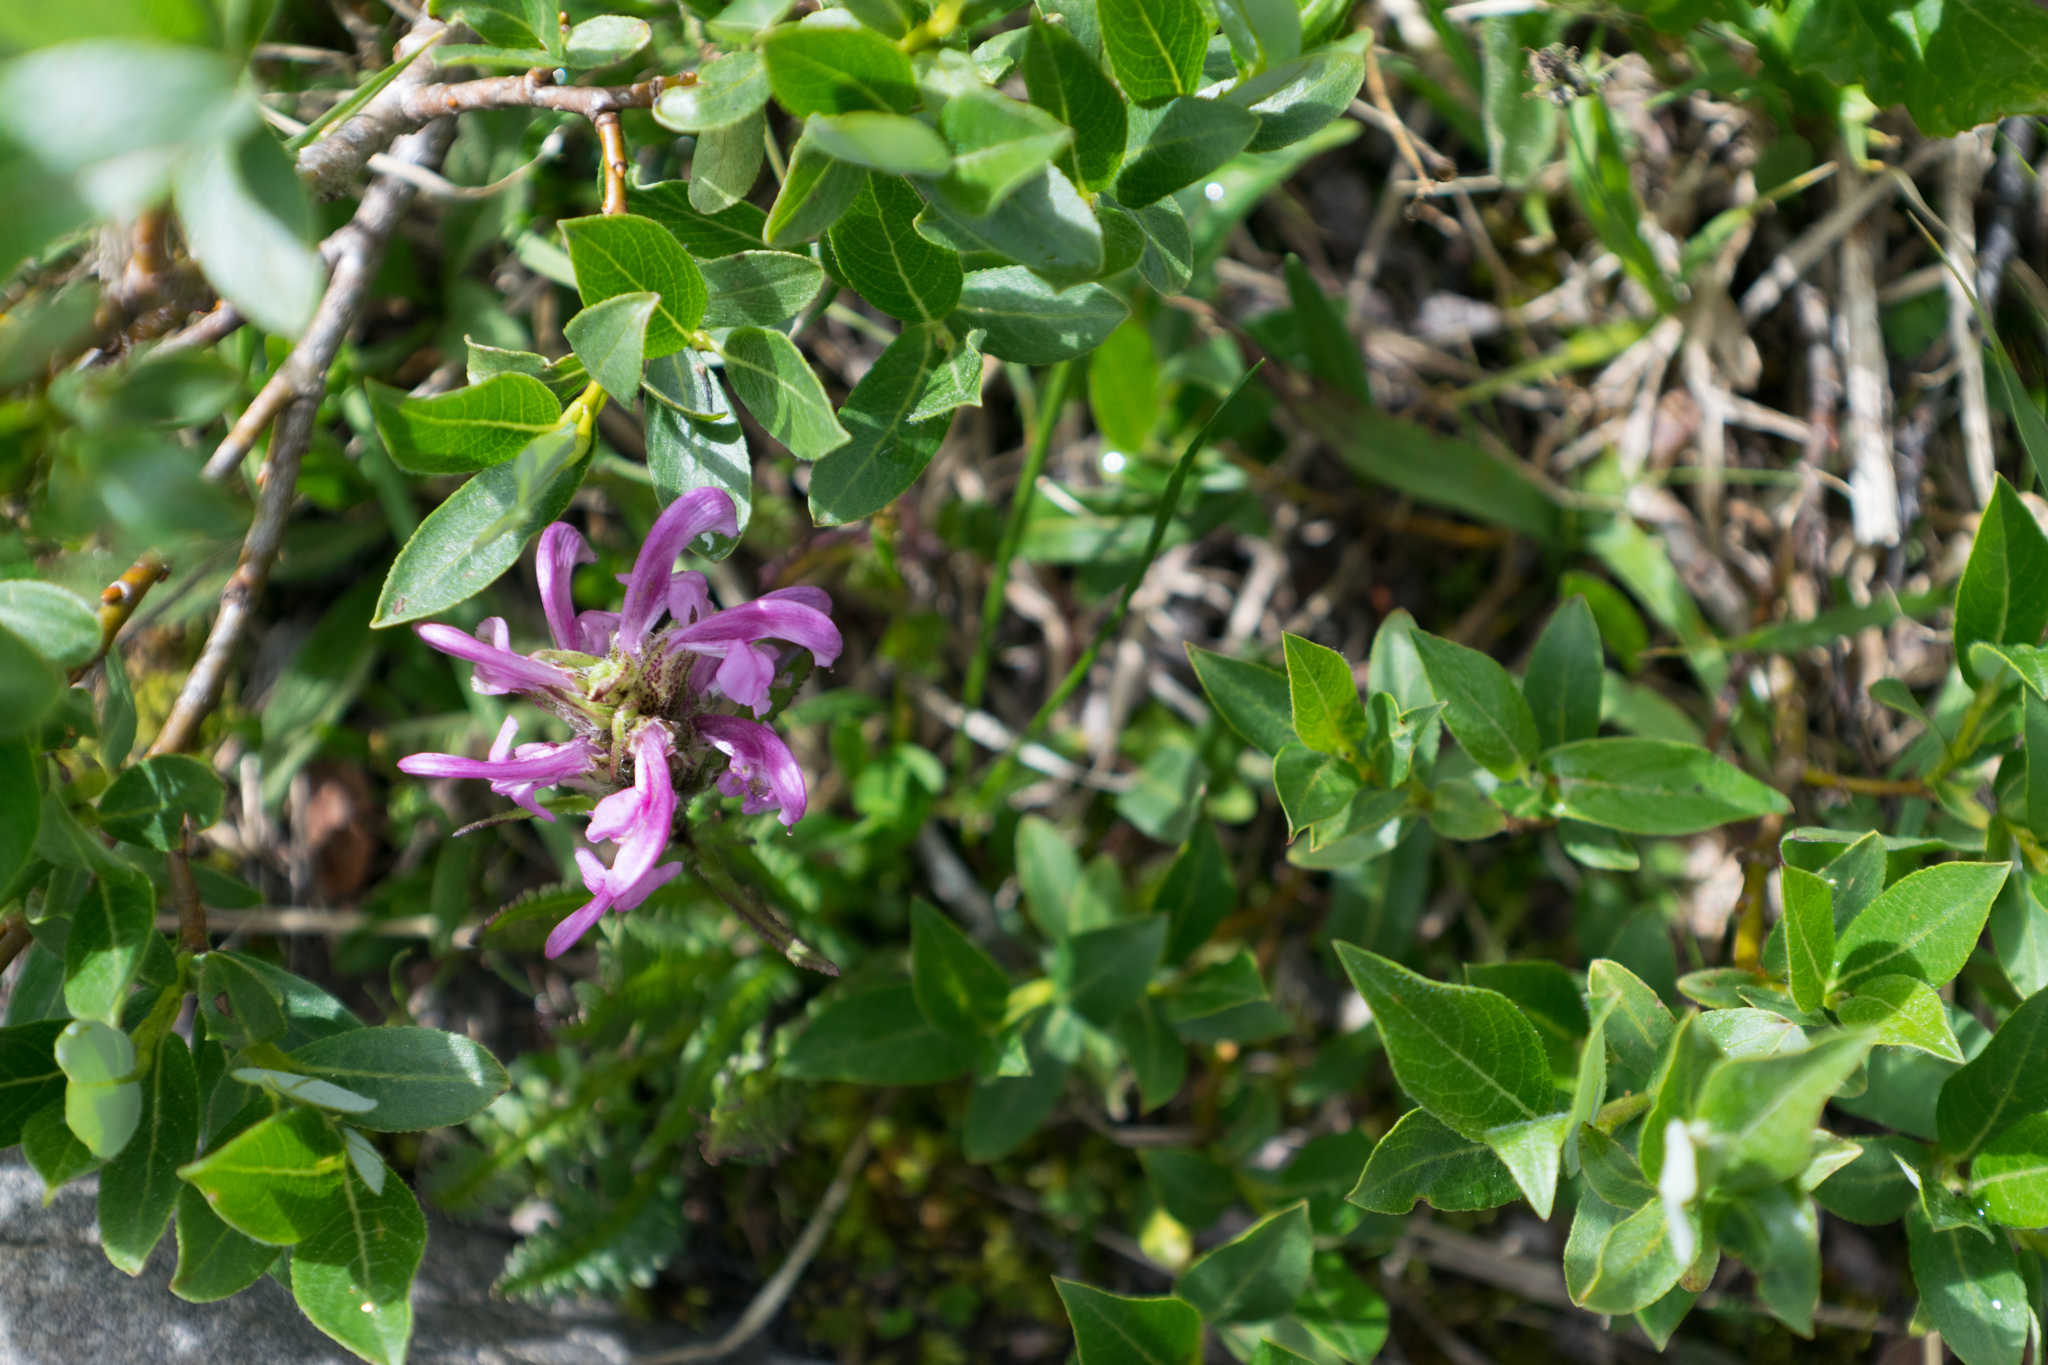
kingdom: Plantae
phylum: Tracheophyta
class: Magnoliopsida
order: Lamiales
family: Orobanchaceae
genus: Pedicularis
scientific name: Pedicularis scopulorum
